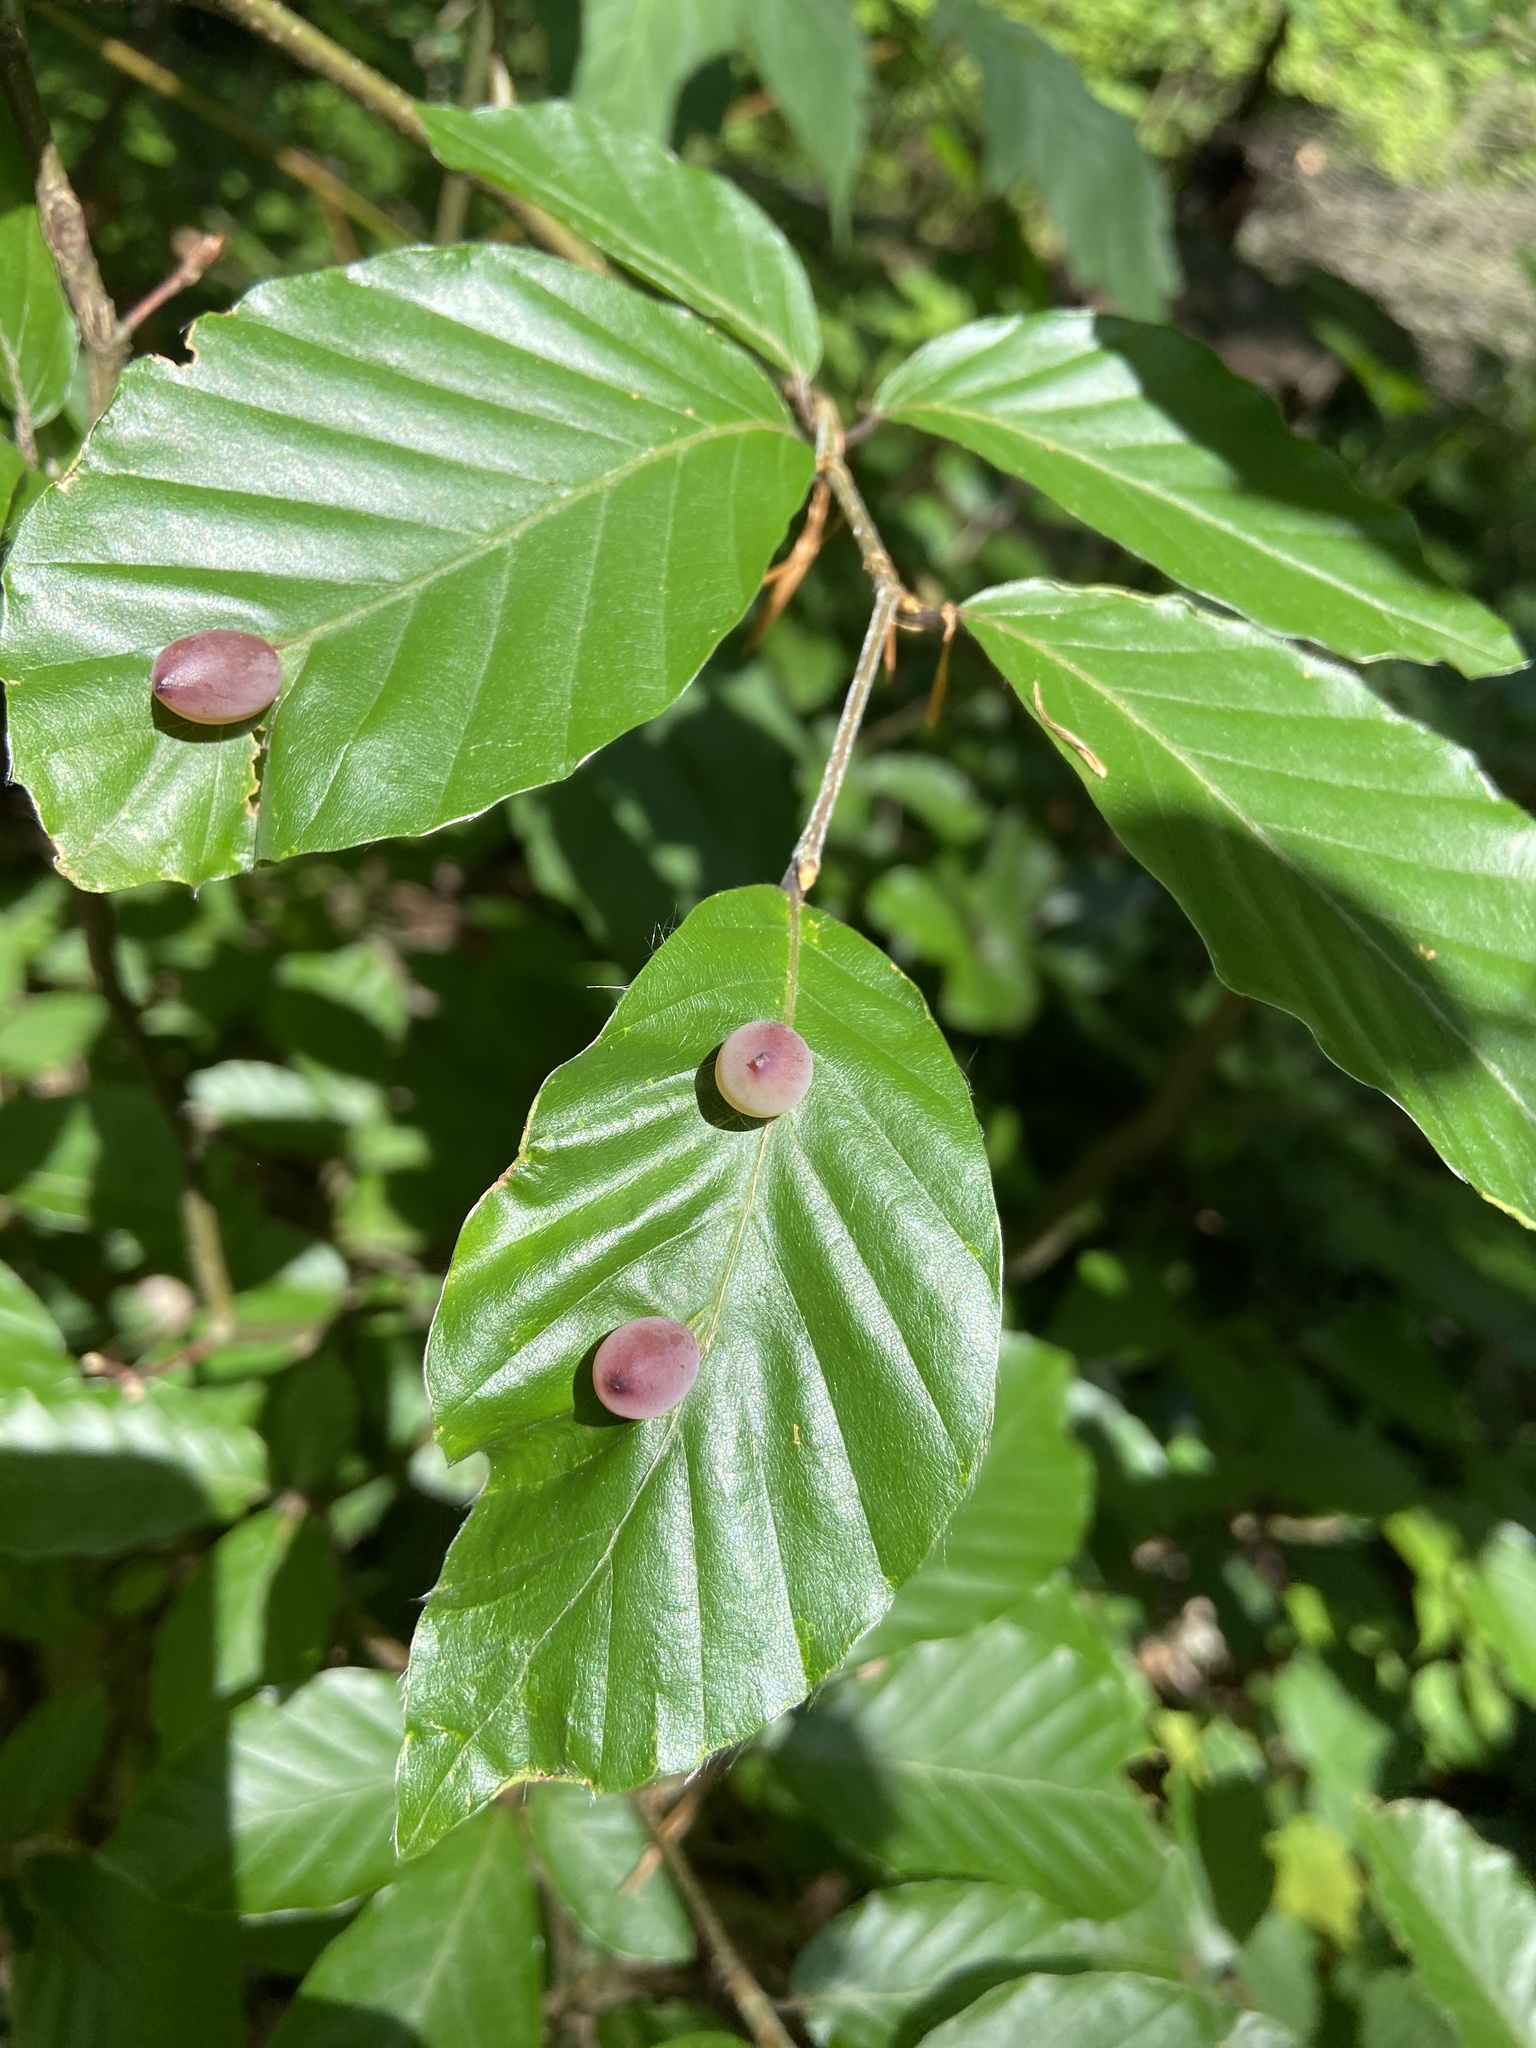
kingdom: Animalia
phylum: Arthropoda
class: Insecta
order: Diptera
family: Cecidomyiidae
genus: Mikiola
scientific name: Mikiola fagi
